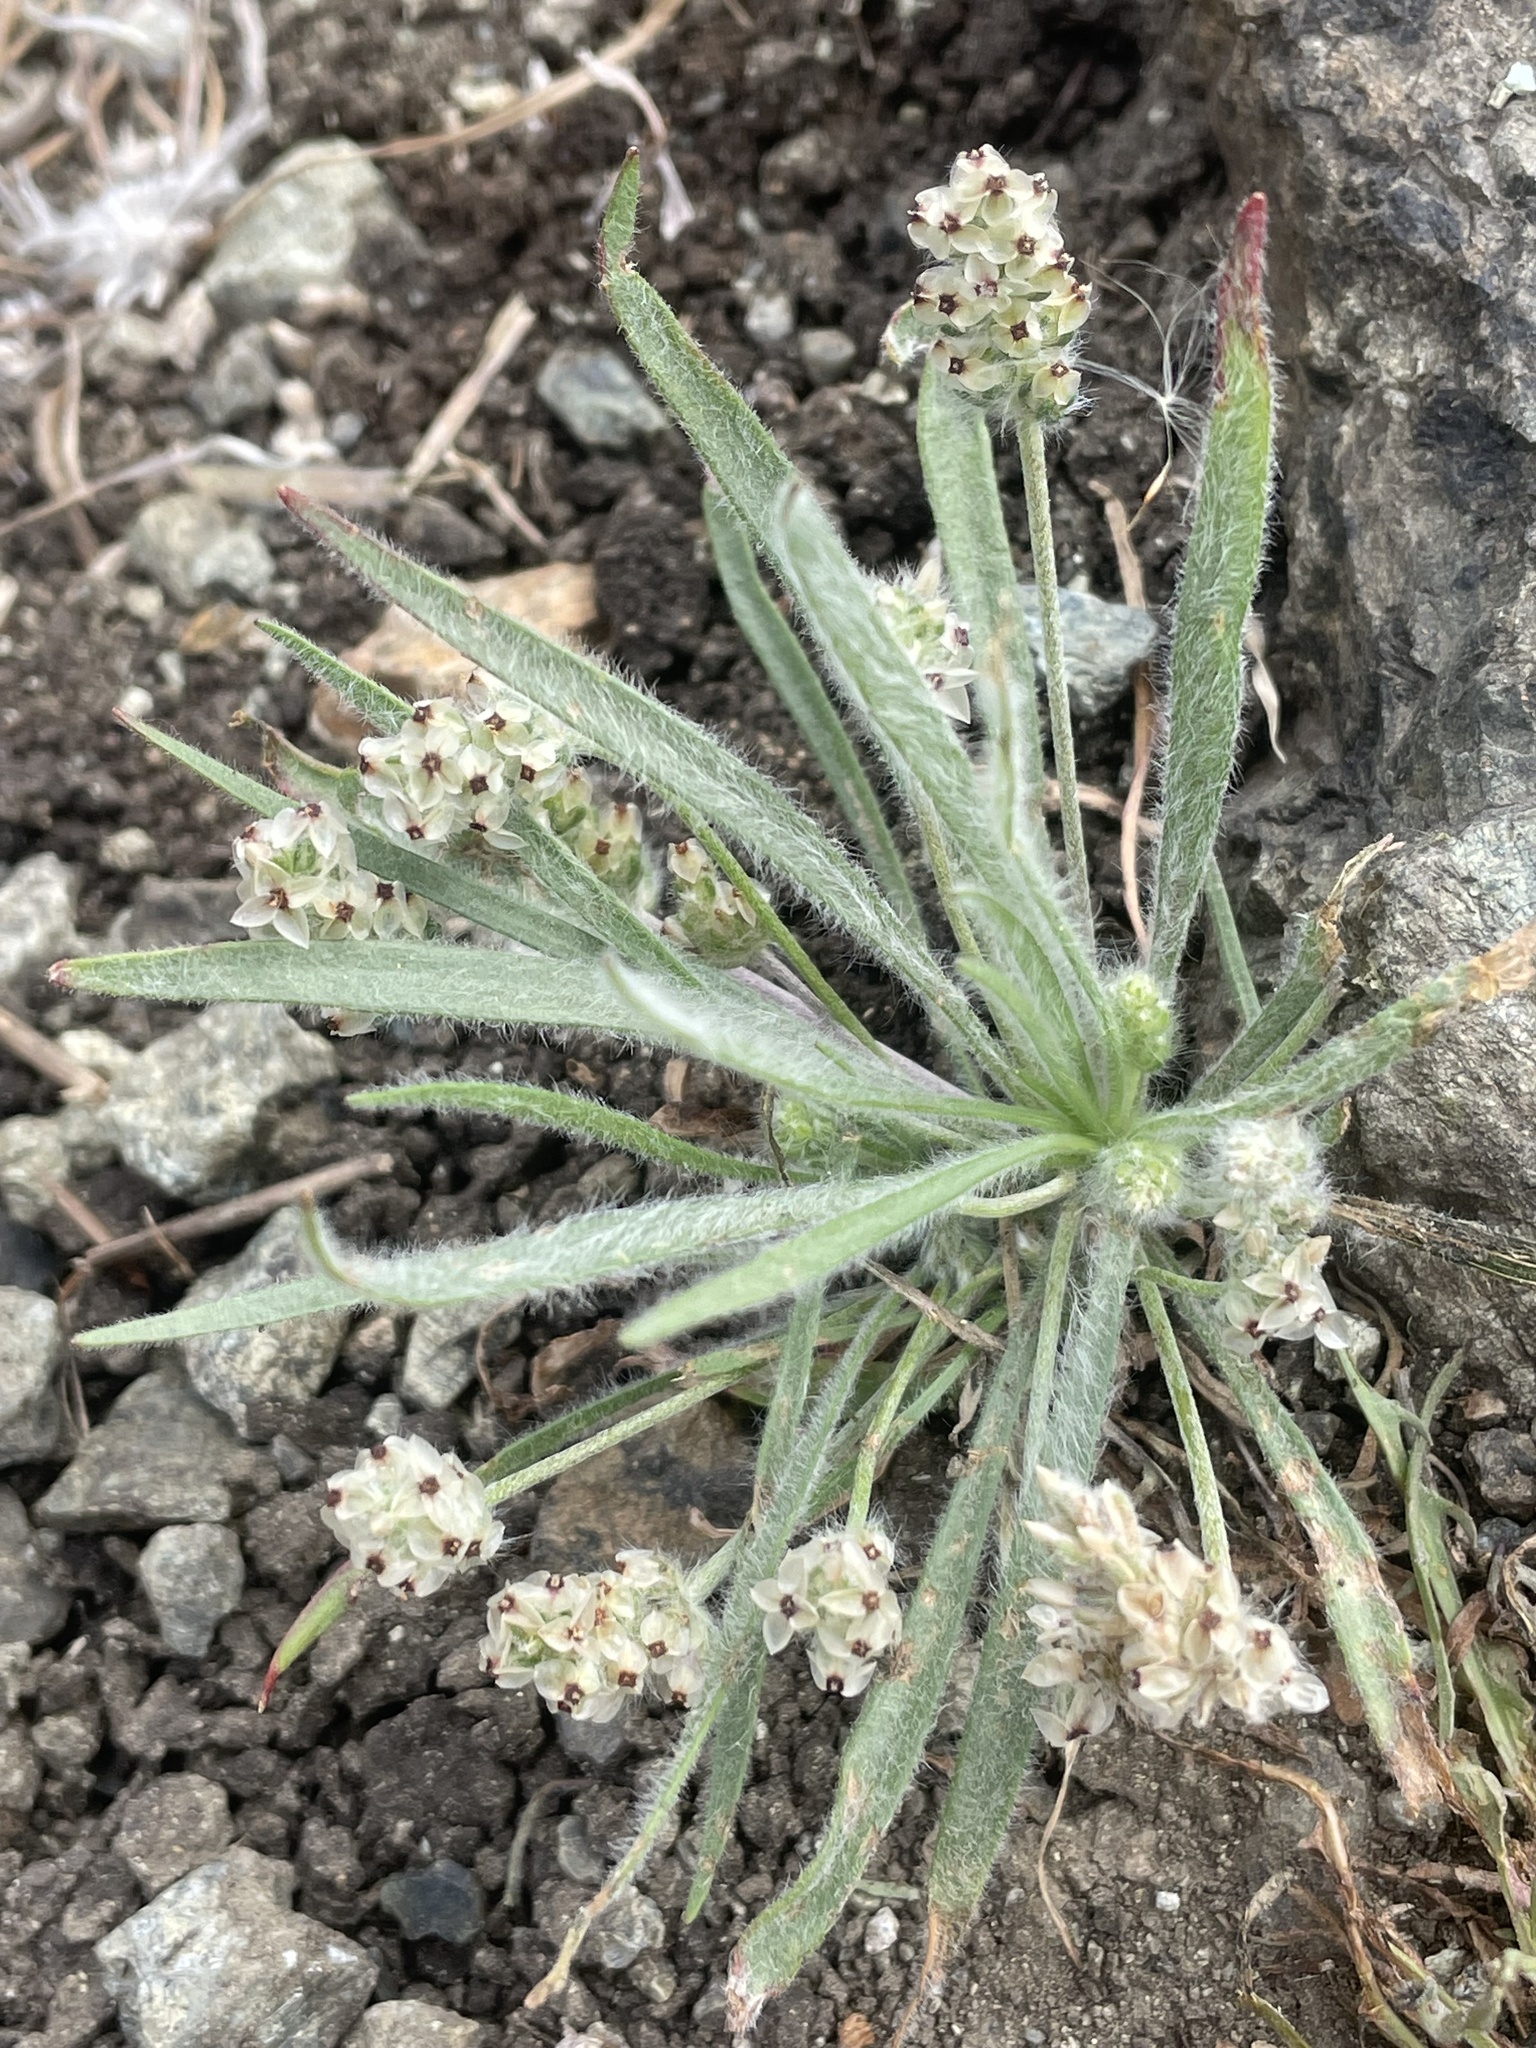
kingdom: Plantae
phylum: Tracheophyta
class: Magnoliopsida
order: Lamiales
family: Plantaginaceae
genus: Plantago
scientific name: Plantago erecta
